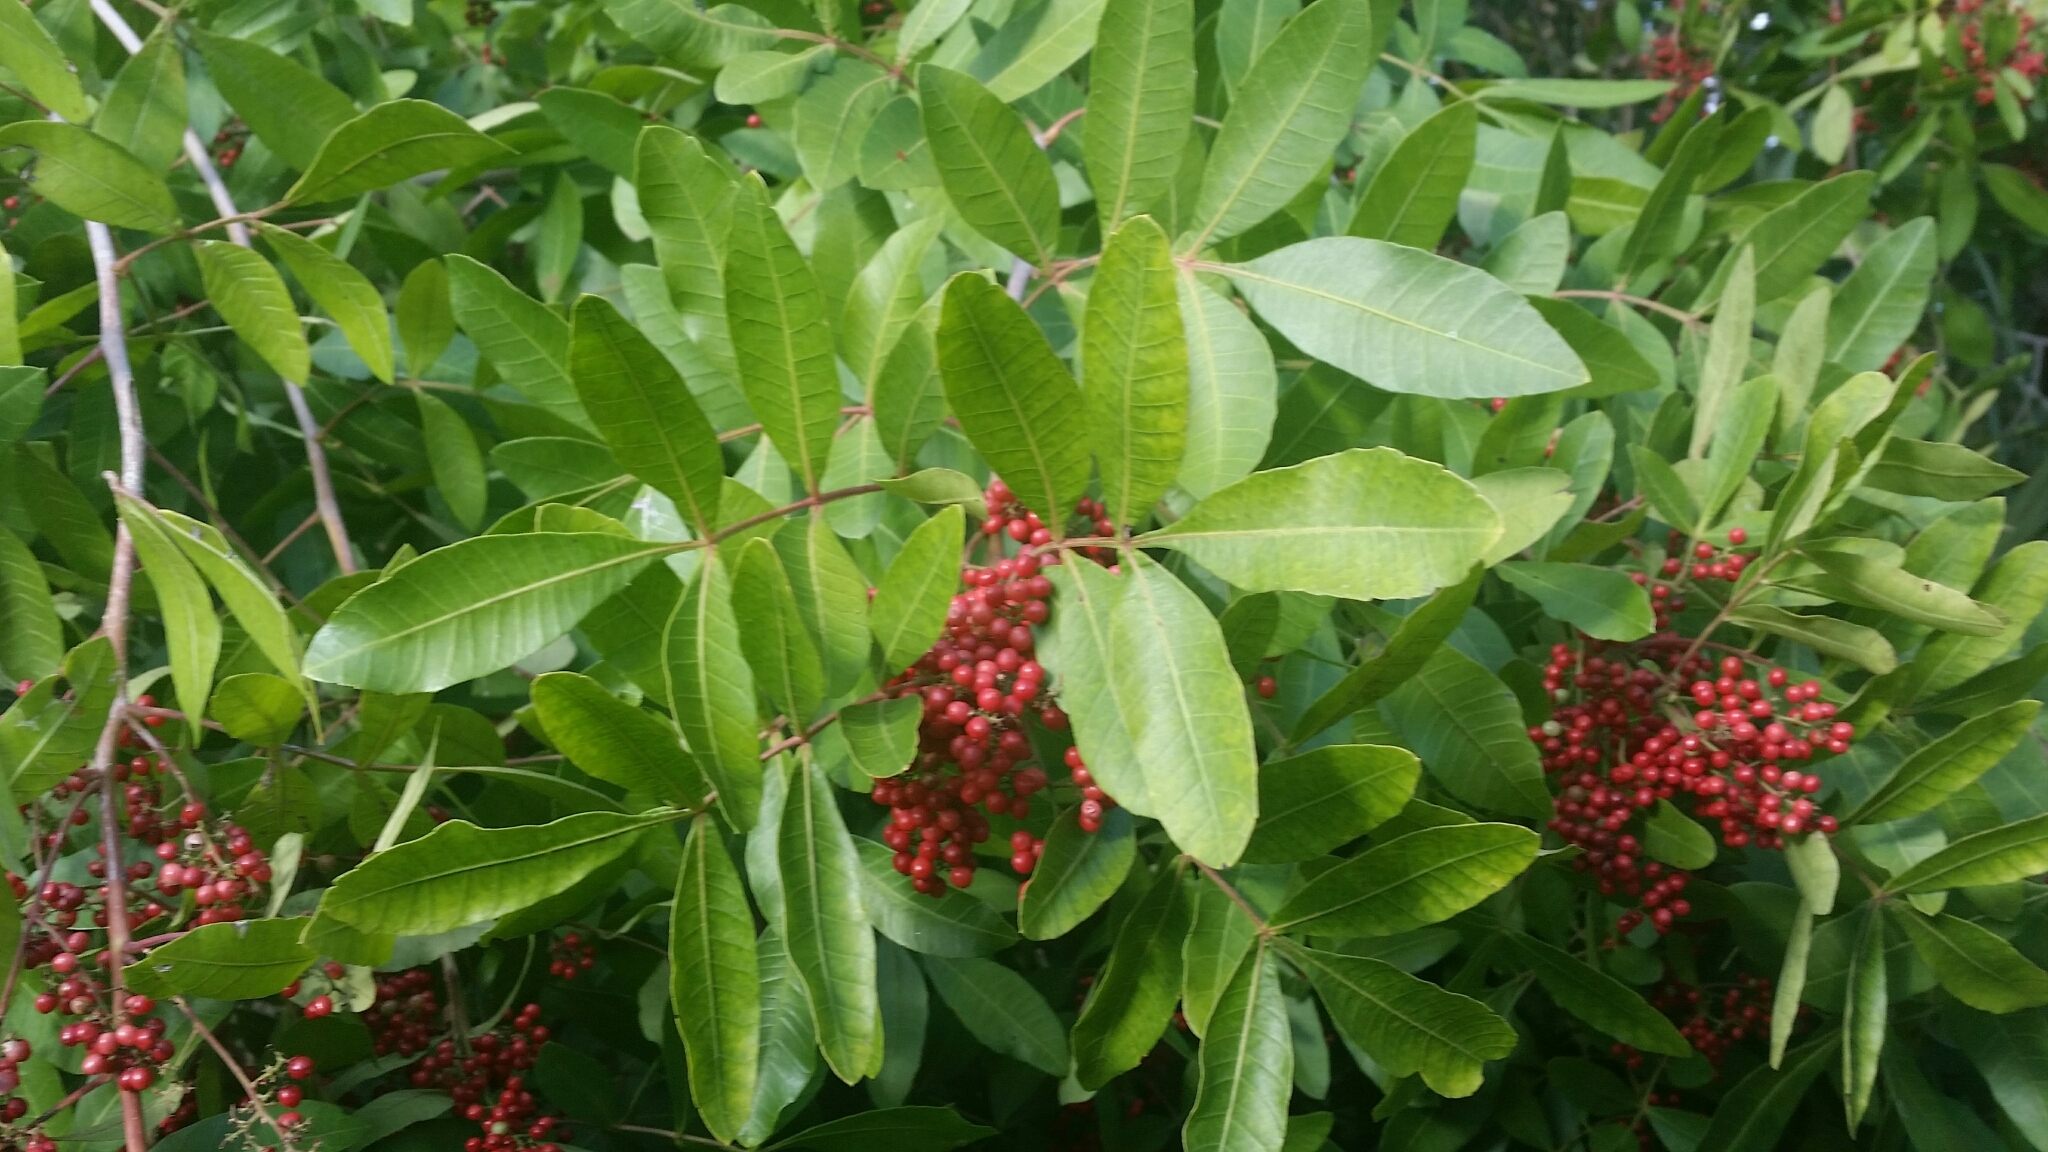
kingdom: Plantae
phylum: Tracheophyta
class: Magnoliopsida
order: Sapindales
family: Anacardiaceae
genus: Schinus
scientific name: Schinus terebinthifolia
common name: Brazilian peppertree
